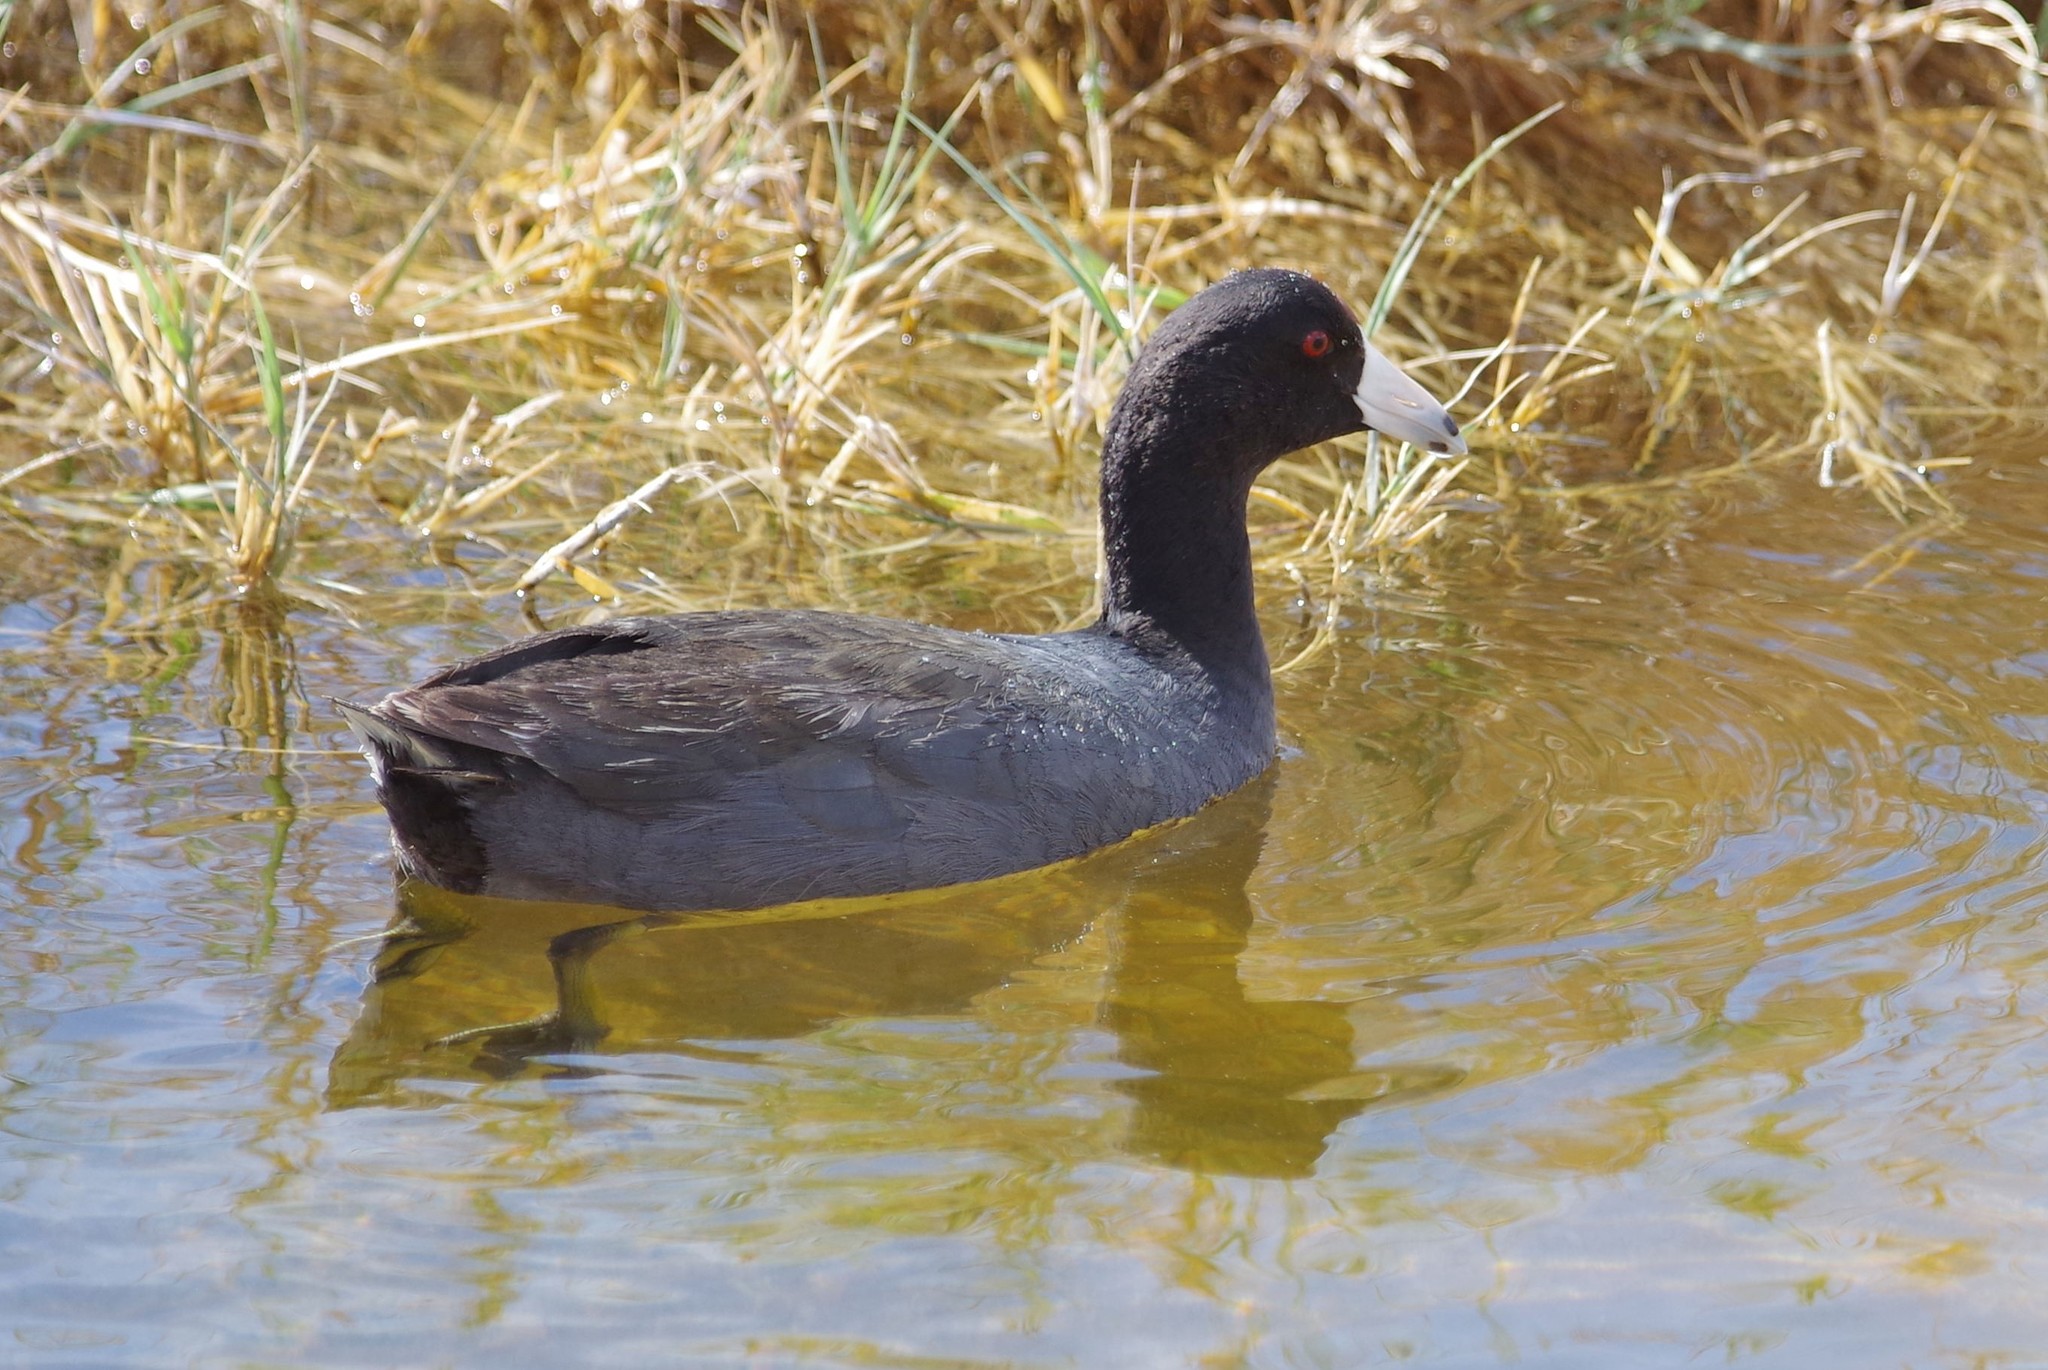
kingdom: Animalia
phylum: Chordata
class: Aves
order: Gruiformes
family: Rallidae
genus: Fulica
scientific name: Fulica americana
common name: American coot
